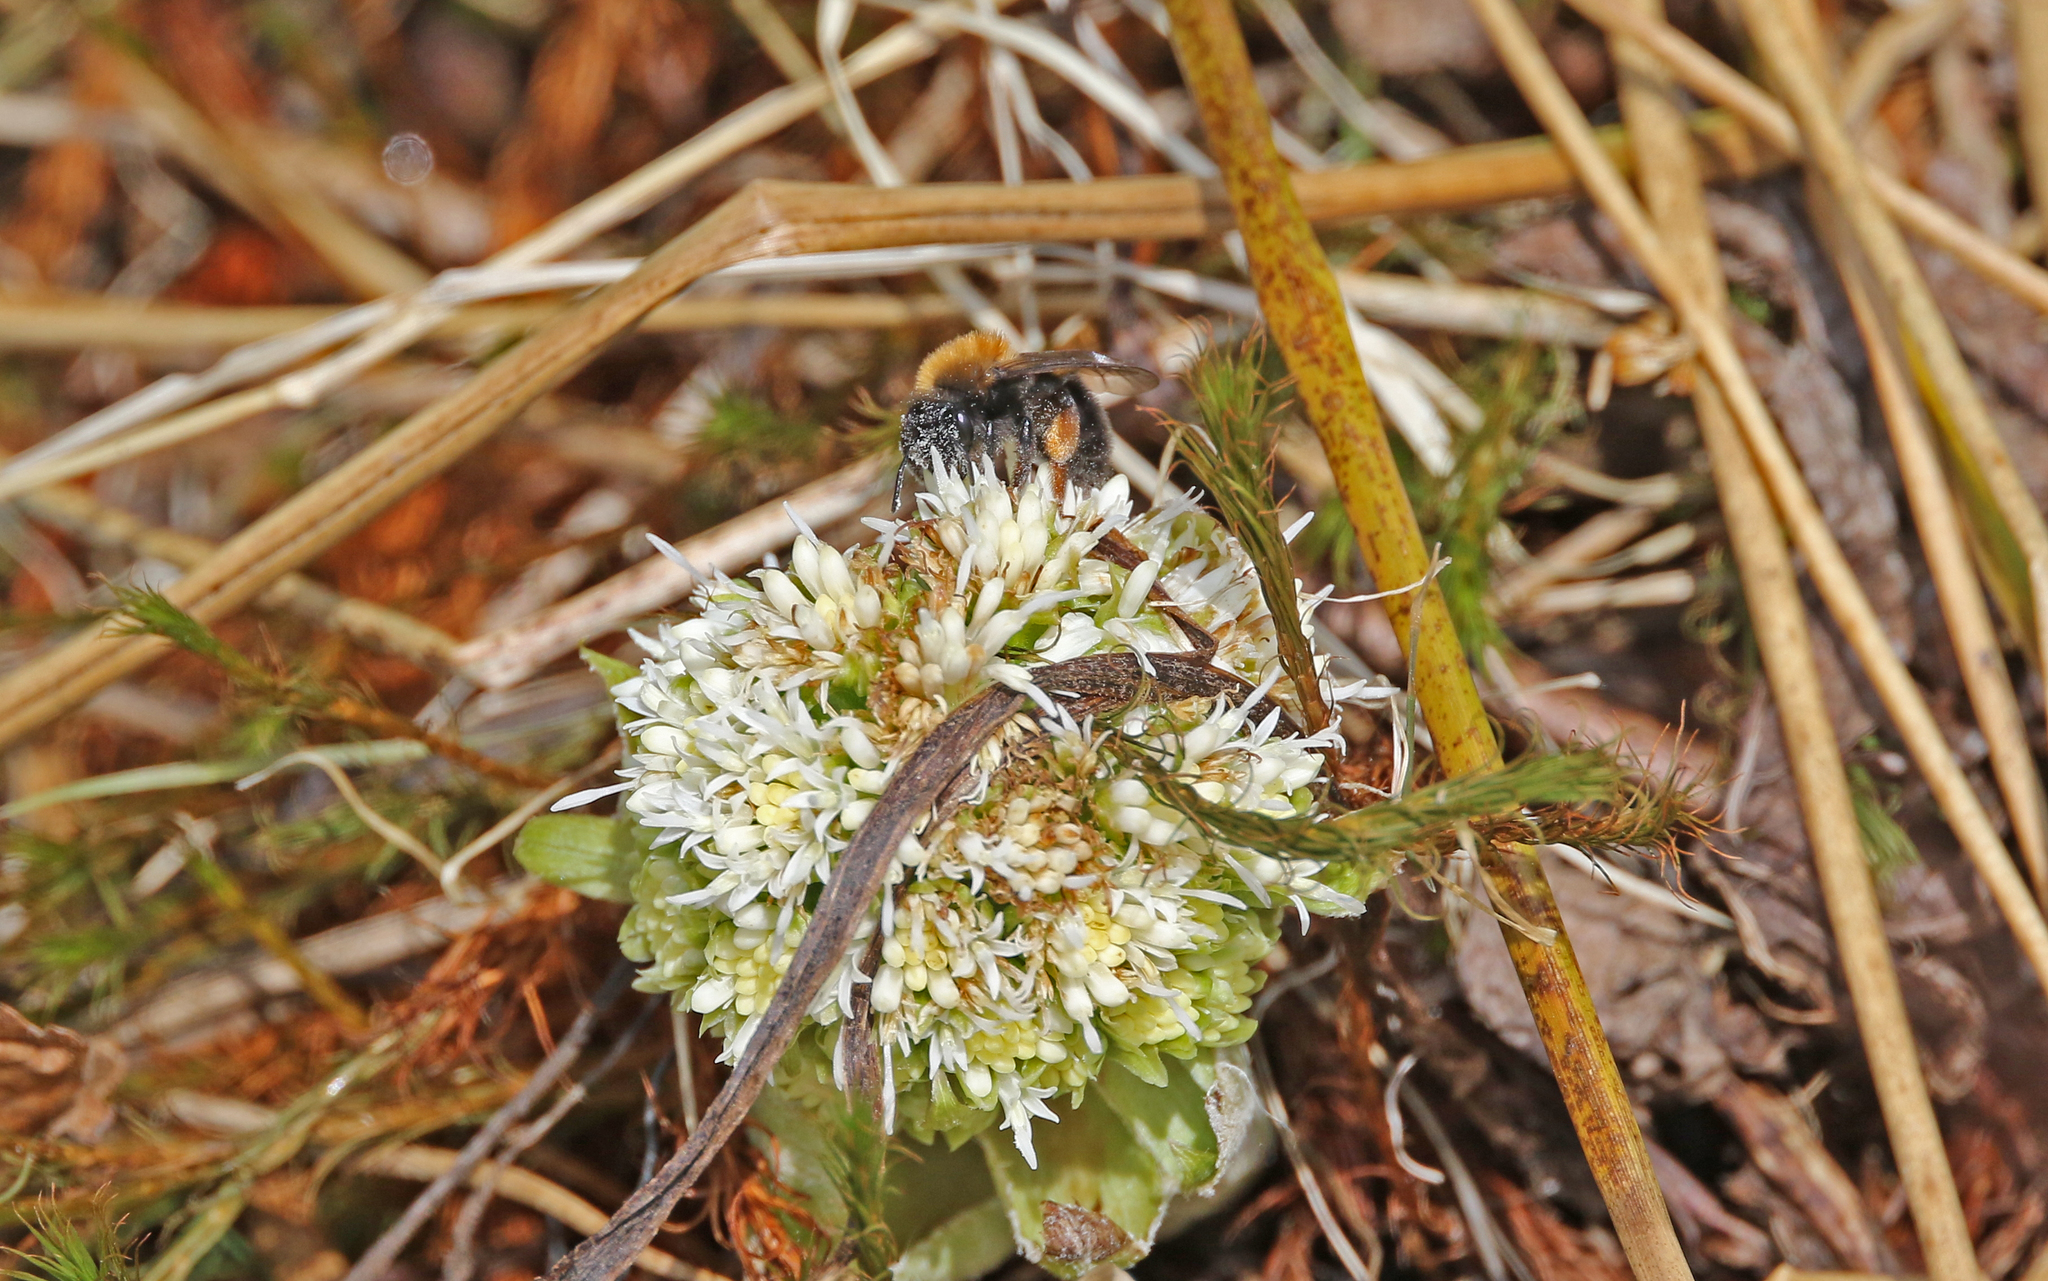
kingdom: Animalia
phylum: Arthropoda
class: Insecta
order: Hymenoptera
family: Andrenidae
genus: Andrena
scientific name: Andrena clarkella
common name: Clarke's mining bee
